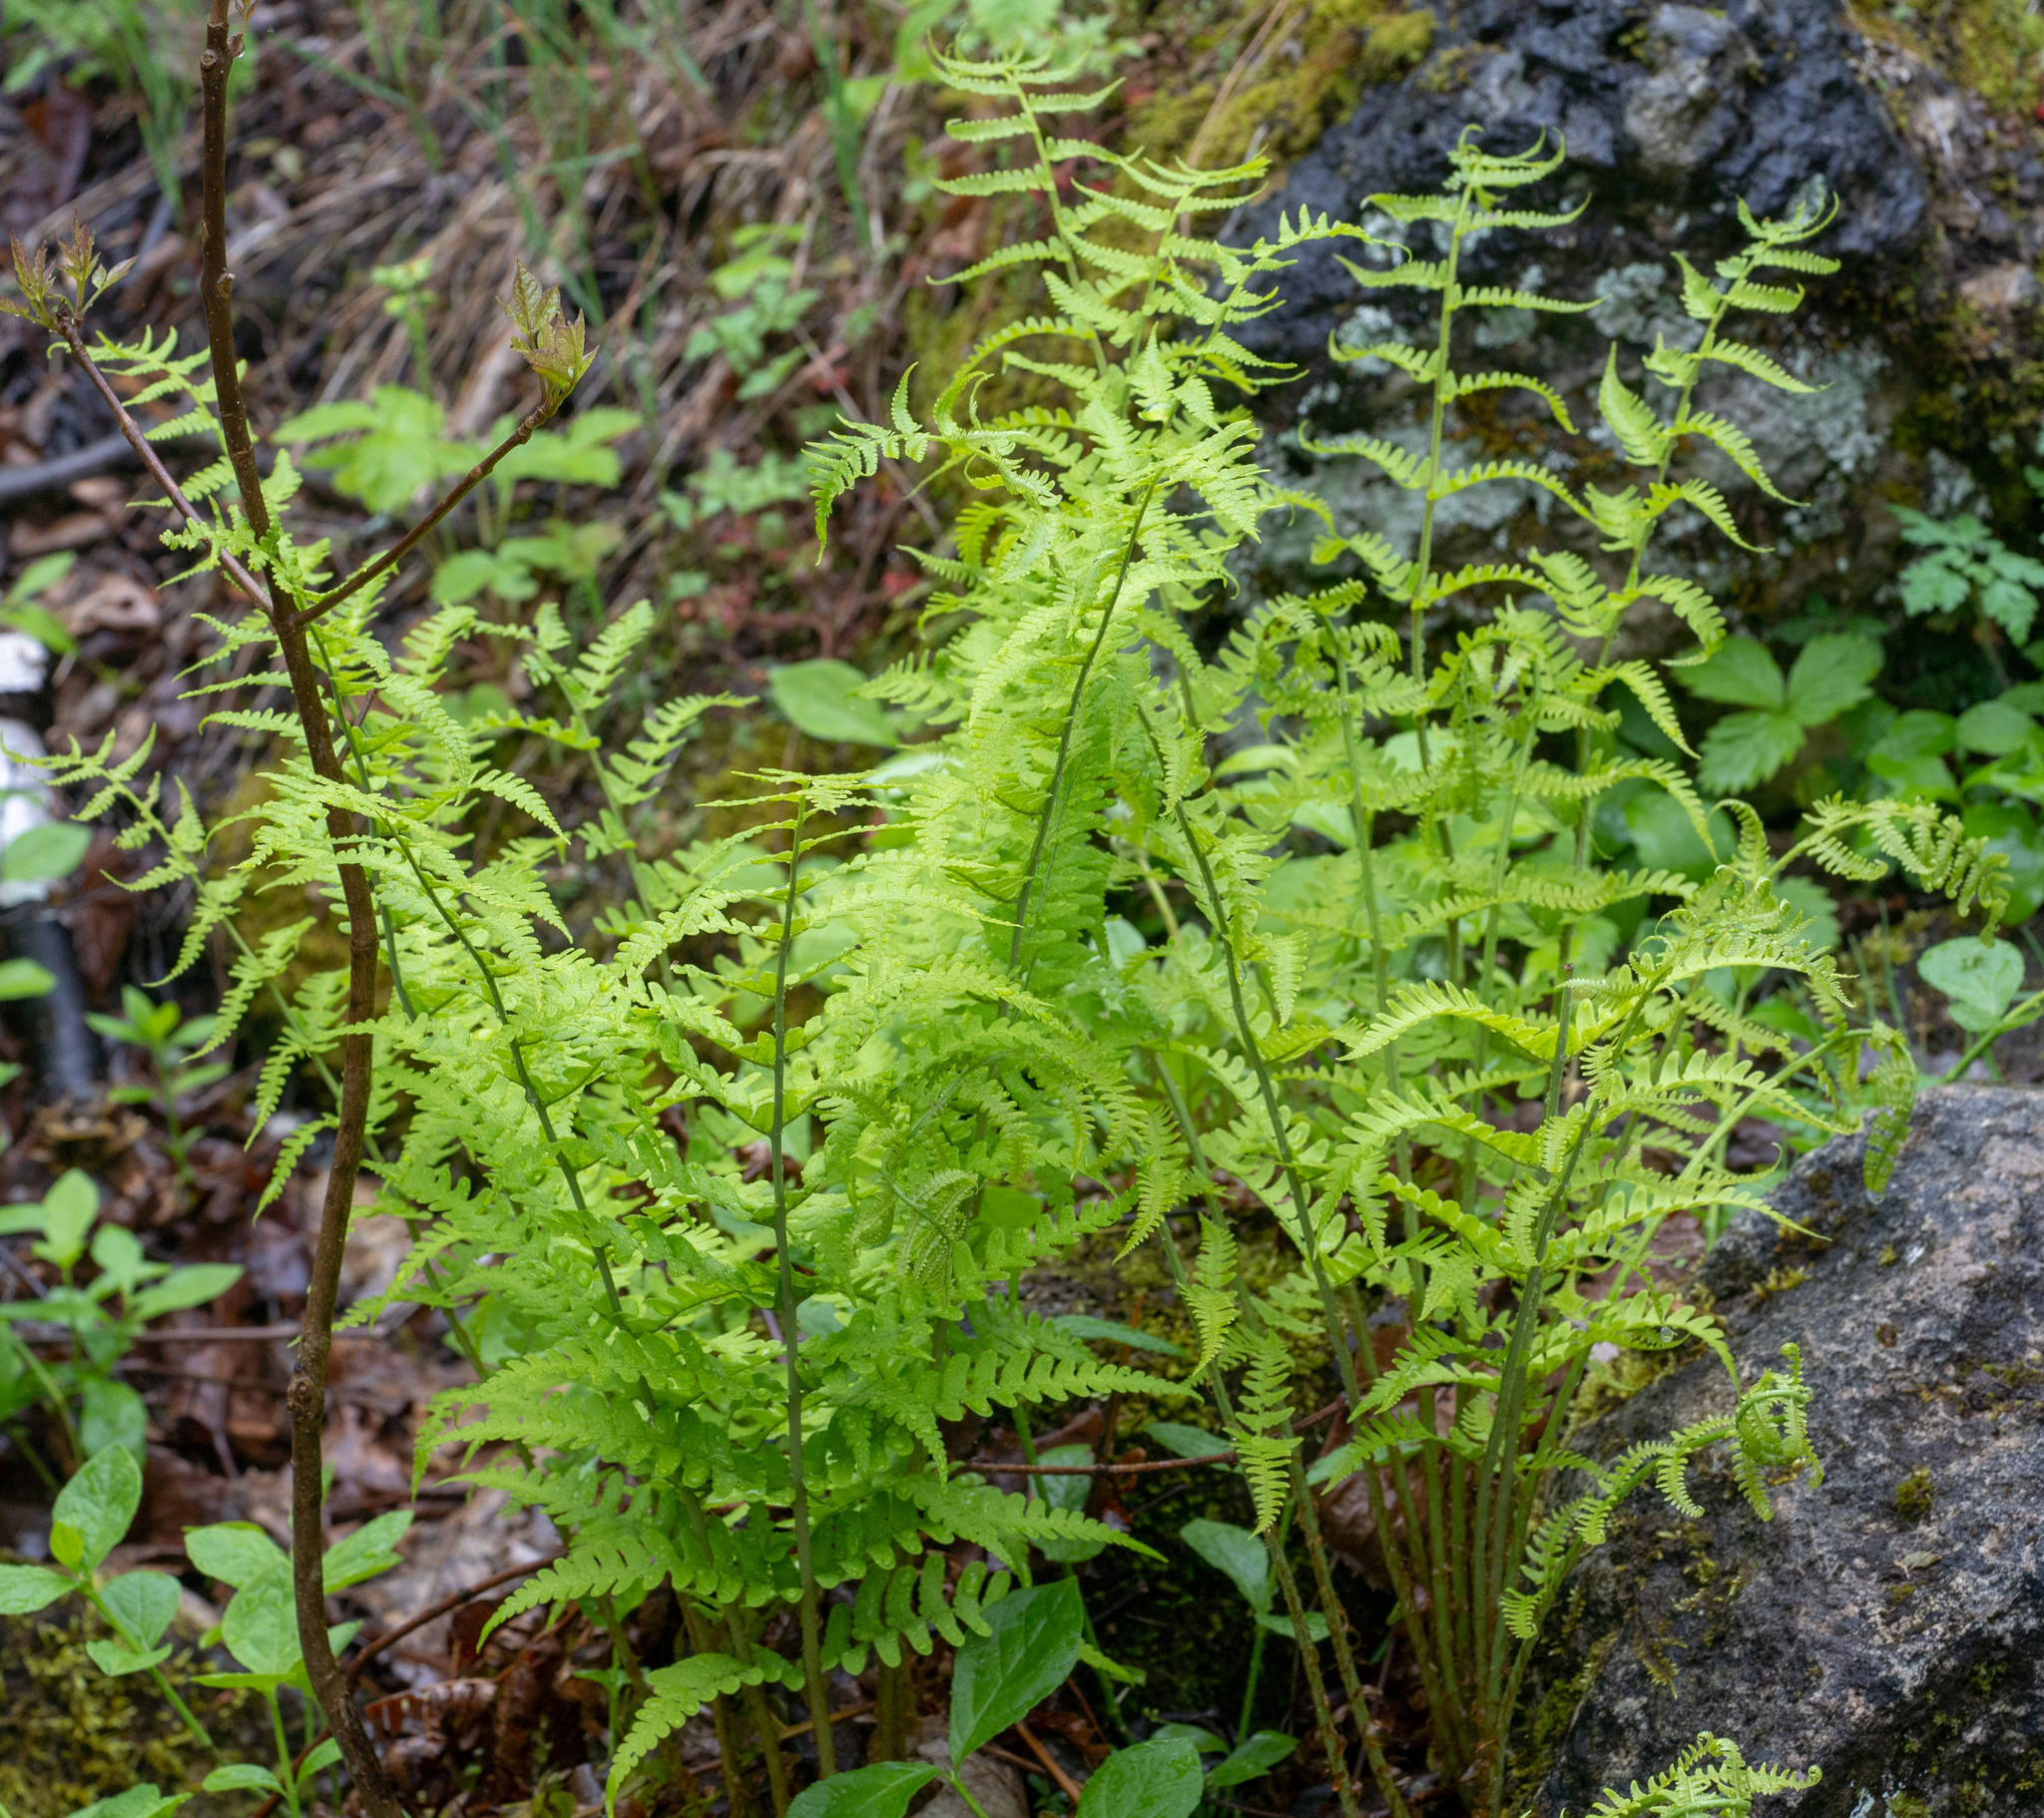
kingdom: Plantae
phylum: Tracheophyta
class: Polypodiopsida
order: Polypodiales
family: Dryopteridaceae
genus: Dryopteris
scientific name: Dryopteris marginalis
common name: Marginal wood fern
